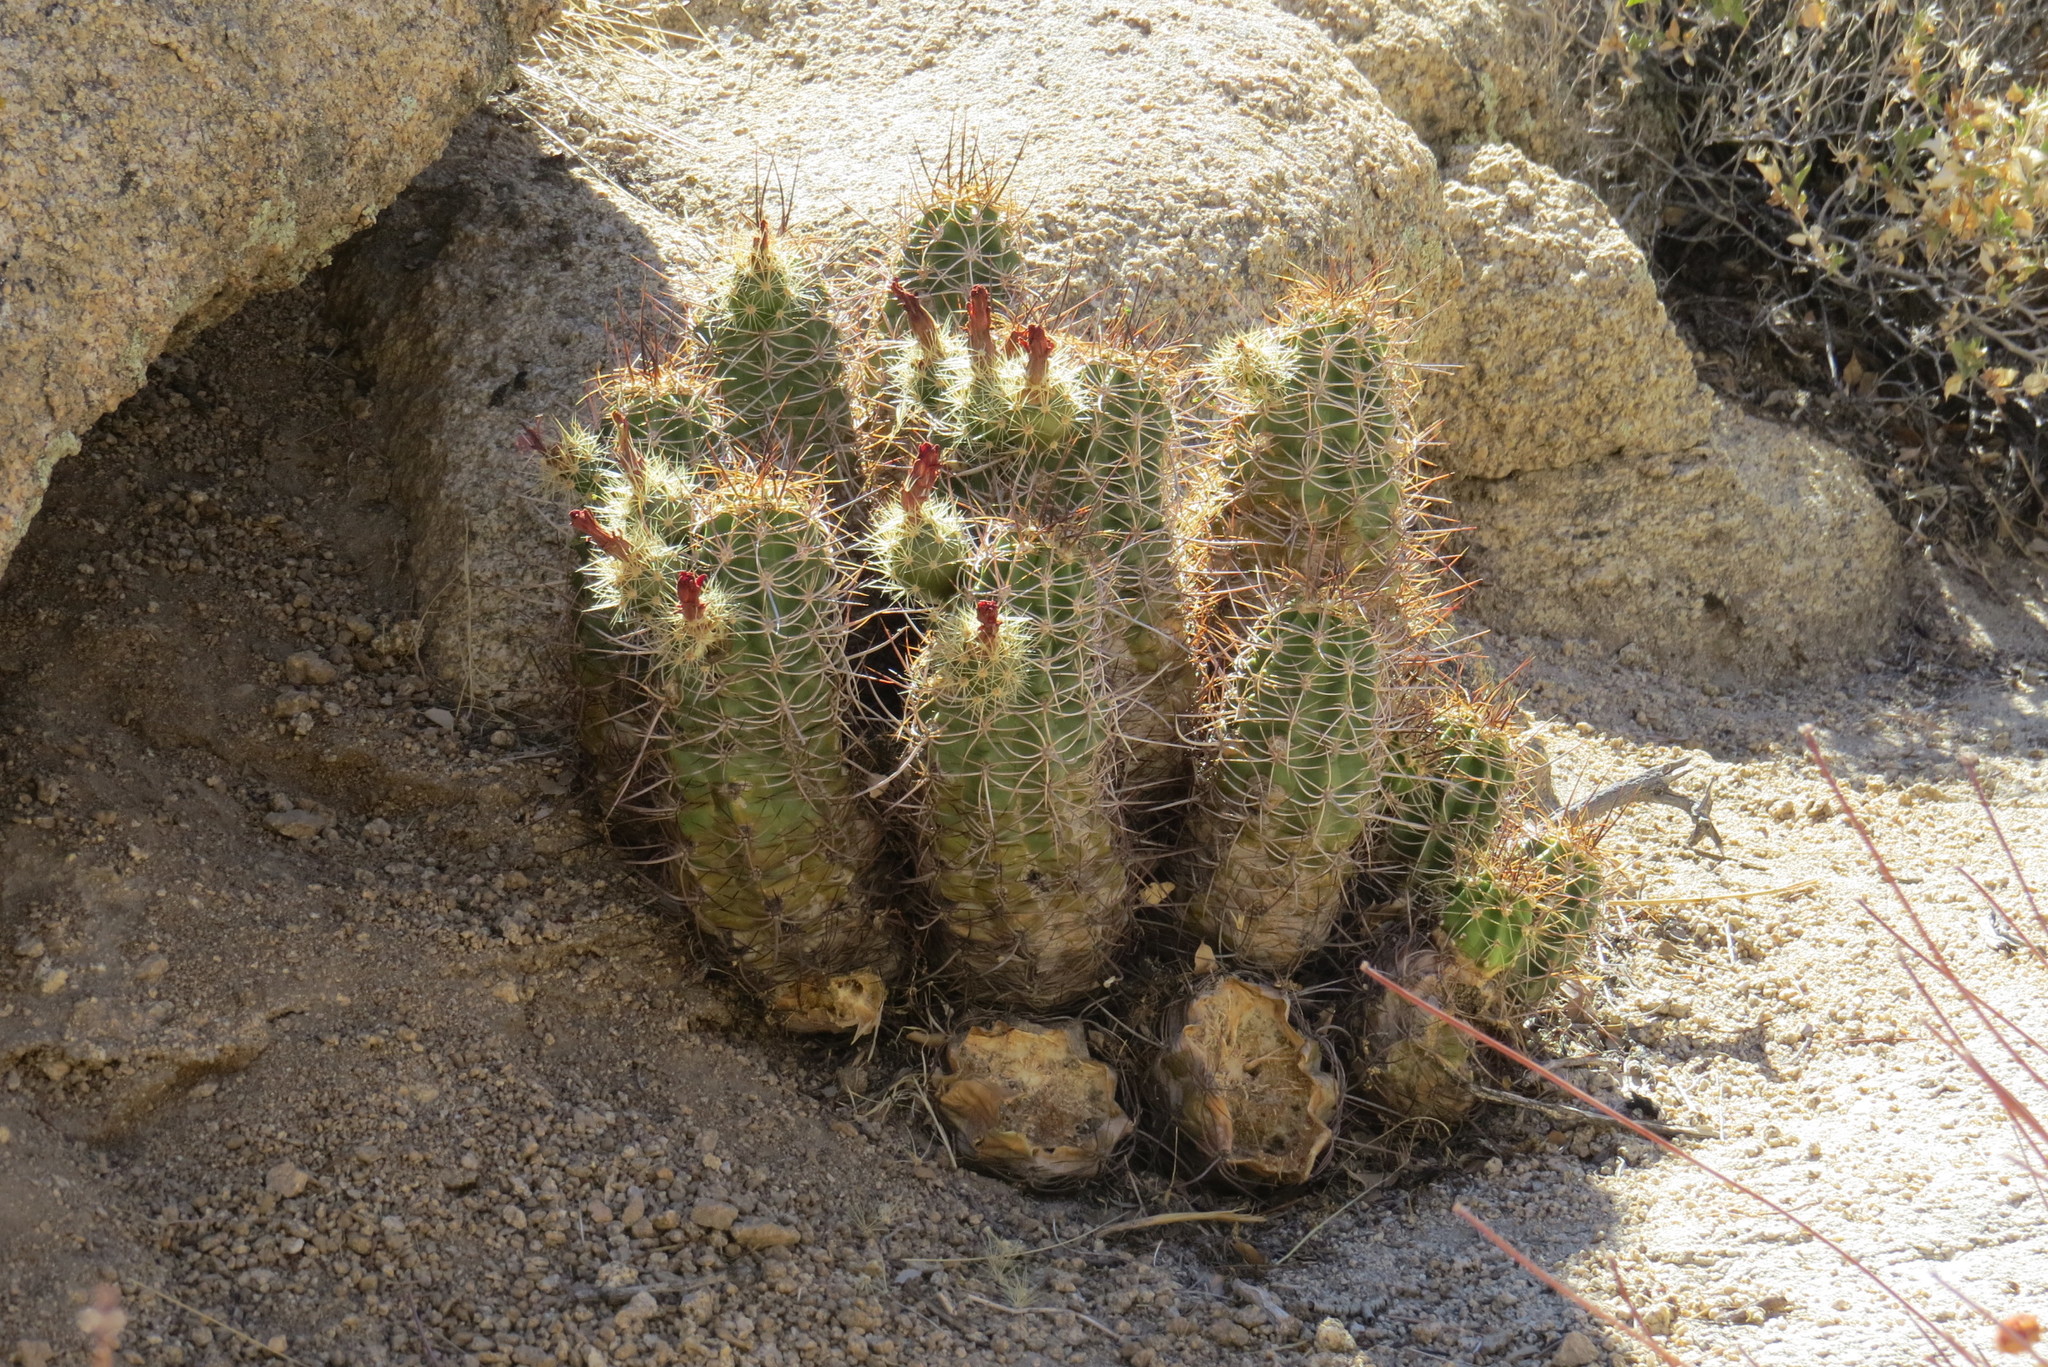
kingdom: Plantae
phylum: Tracheophyta
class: Magnoliopsida
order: Caryophyllales
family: Cactaceae
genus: Echinocereus
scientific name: Echinocereus triglochidiatus
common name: Claretcup hedgehog
